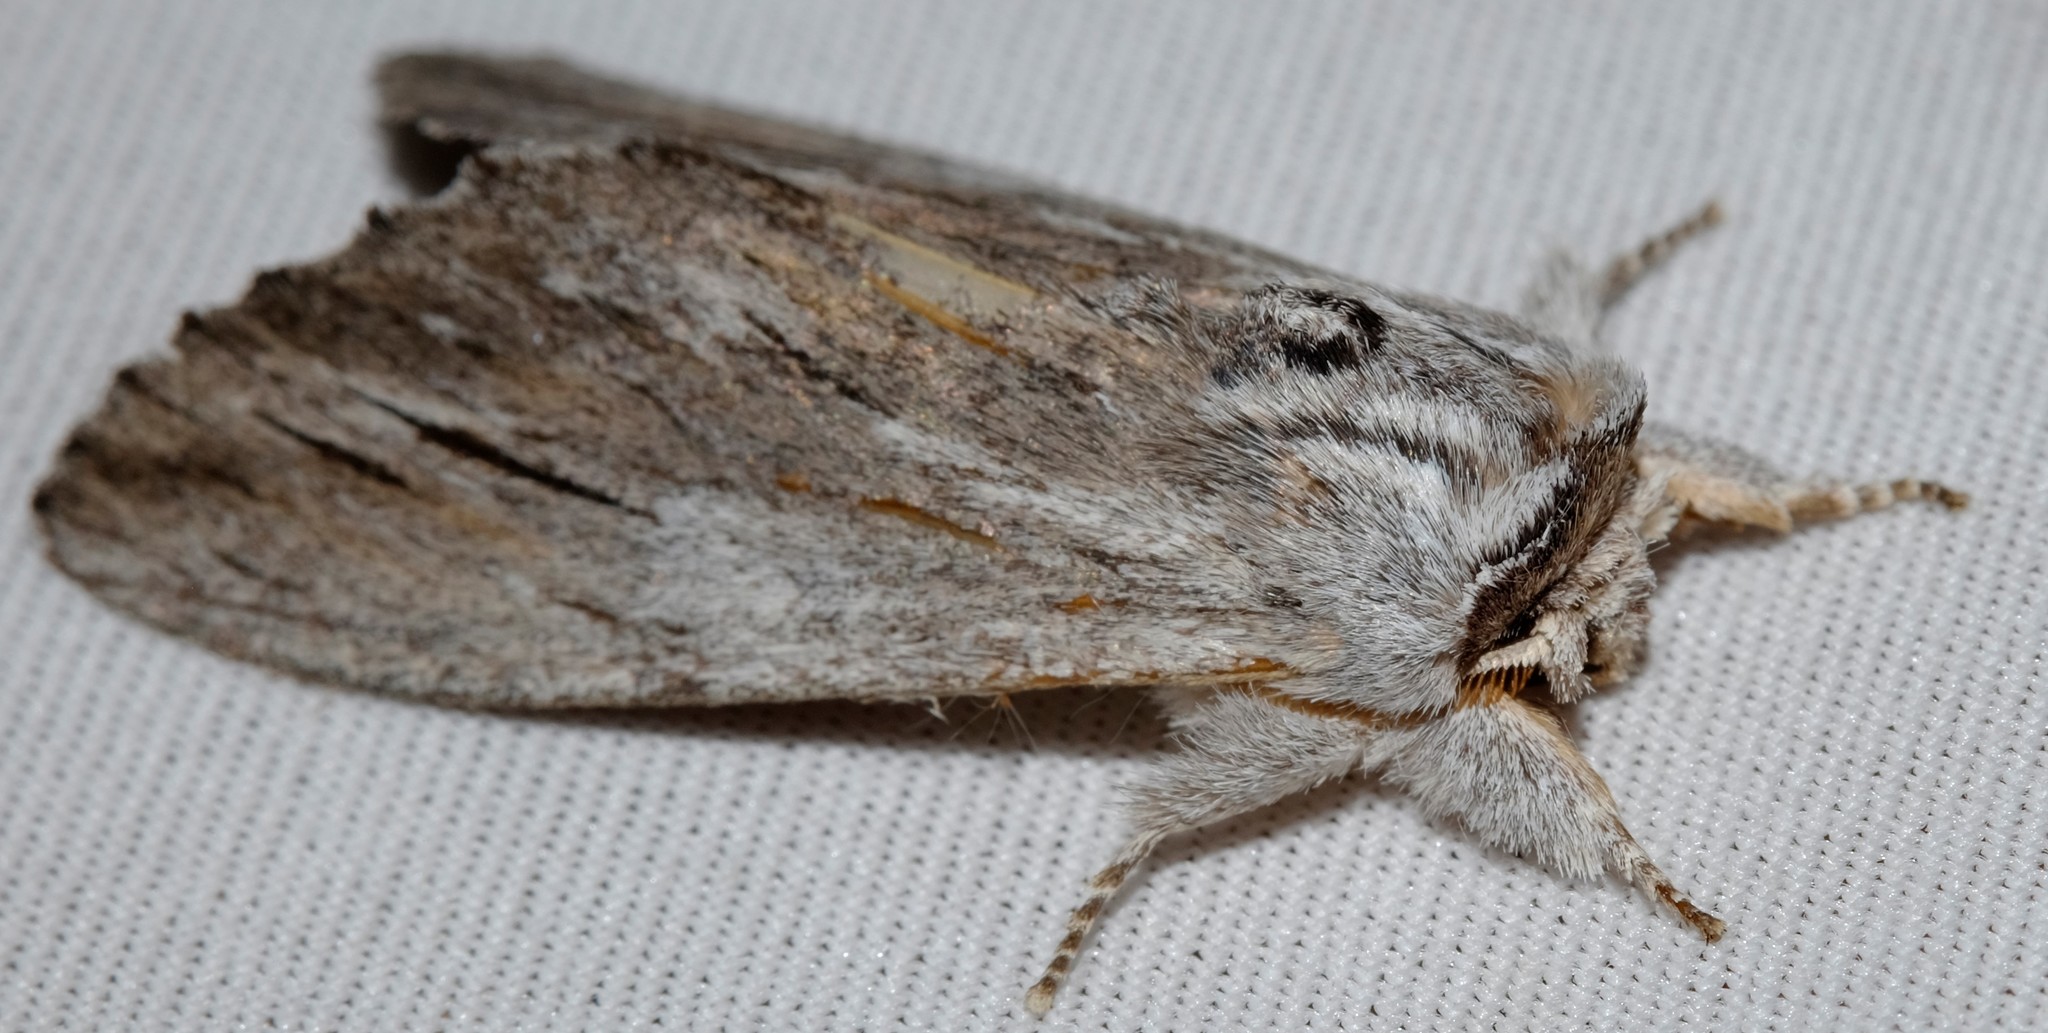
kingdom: Animalia
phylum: Arthropoda
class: Insecta
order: Lepidoptera
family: Notodontidae
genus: Destolmia
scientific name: Destolmia lineata
